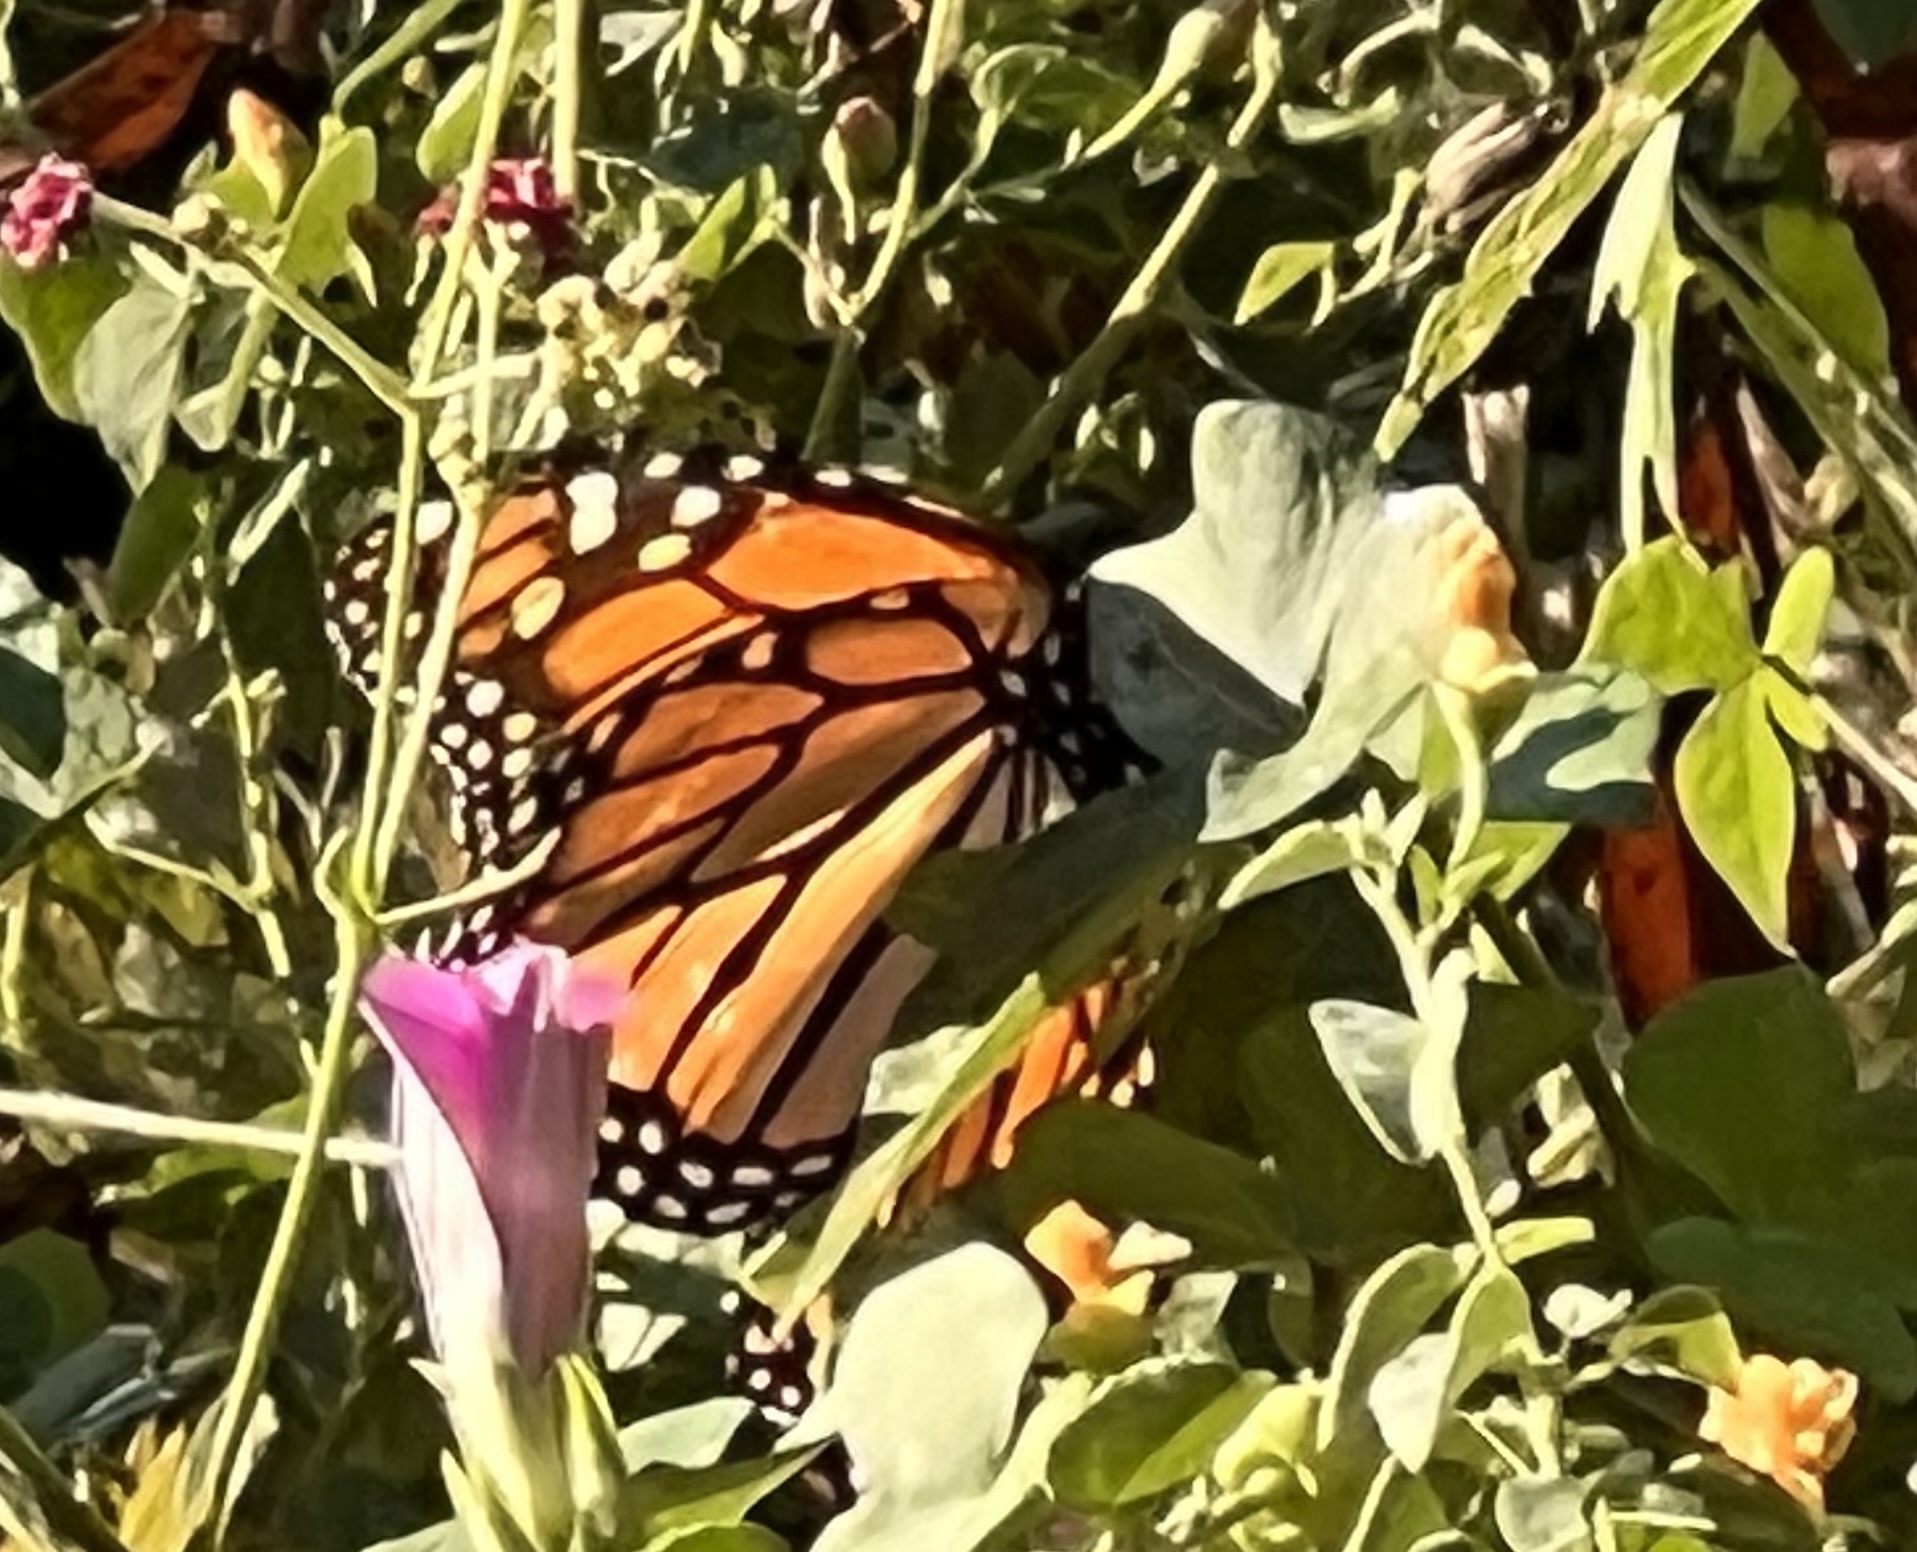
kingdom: Animalia
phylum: Arthropoda
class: Insecta
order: Lepidoptera
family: Nymphalidae
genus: Danaus
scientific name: Danaus plexippus
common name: Monarch
